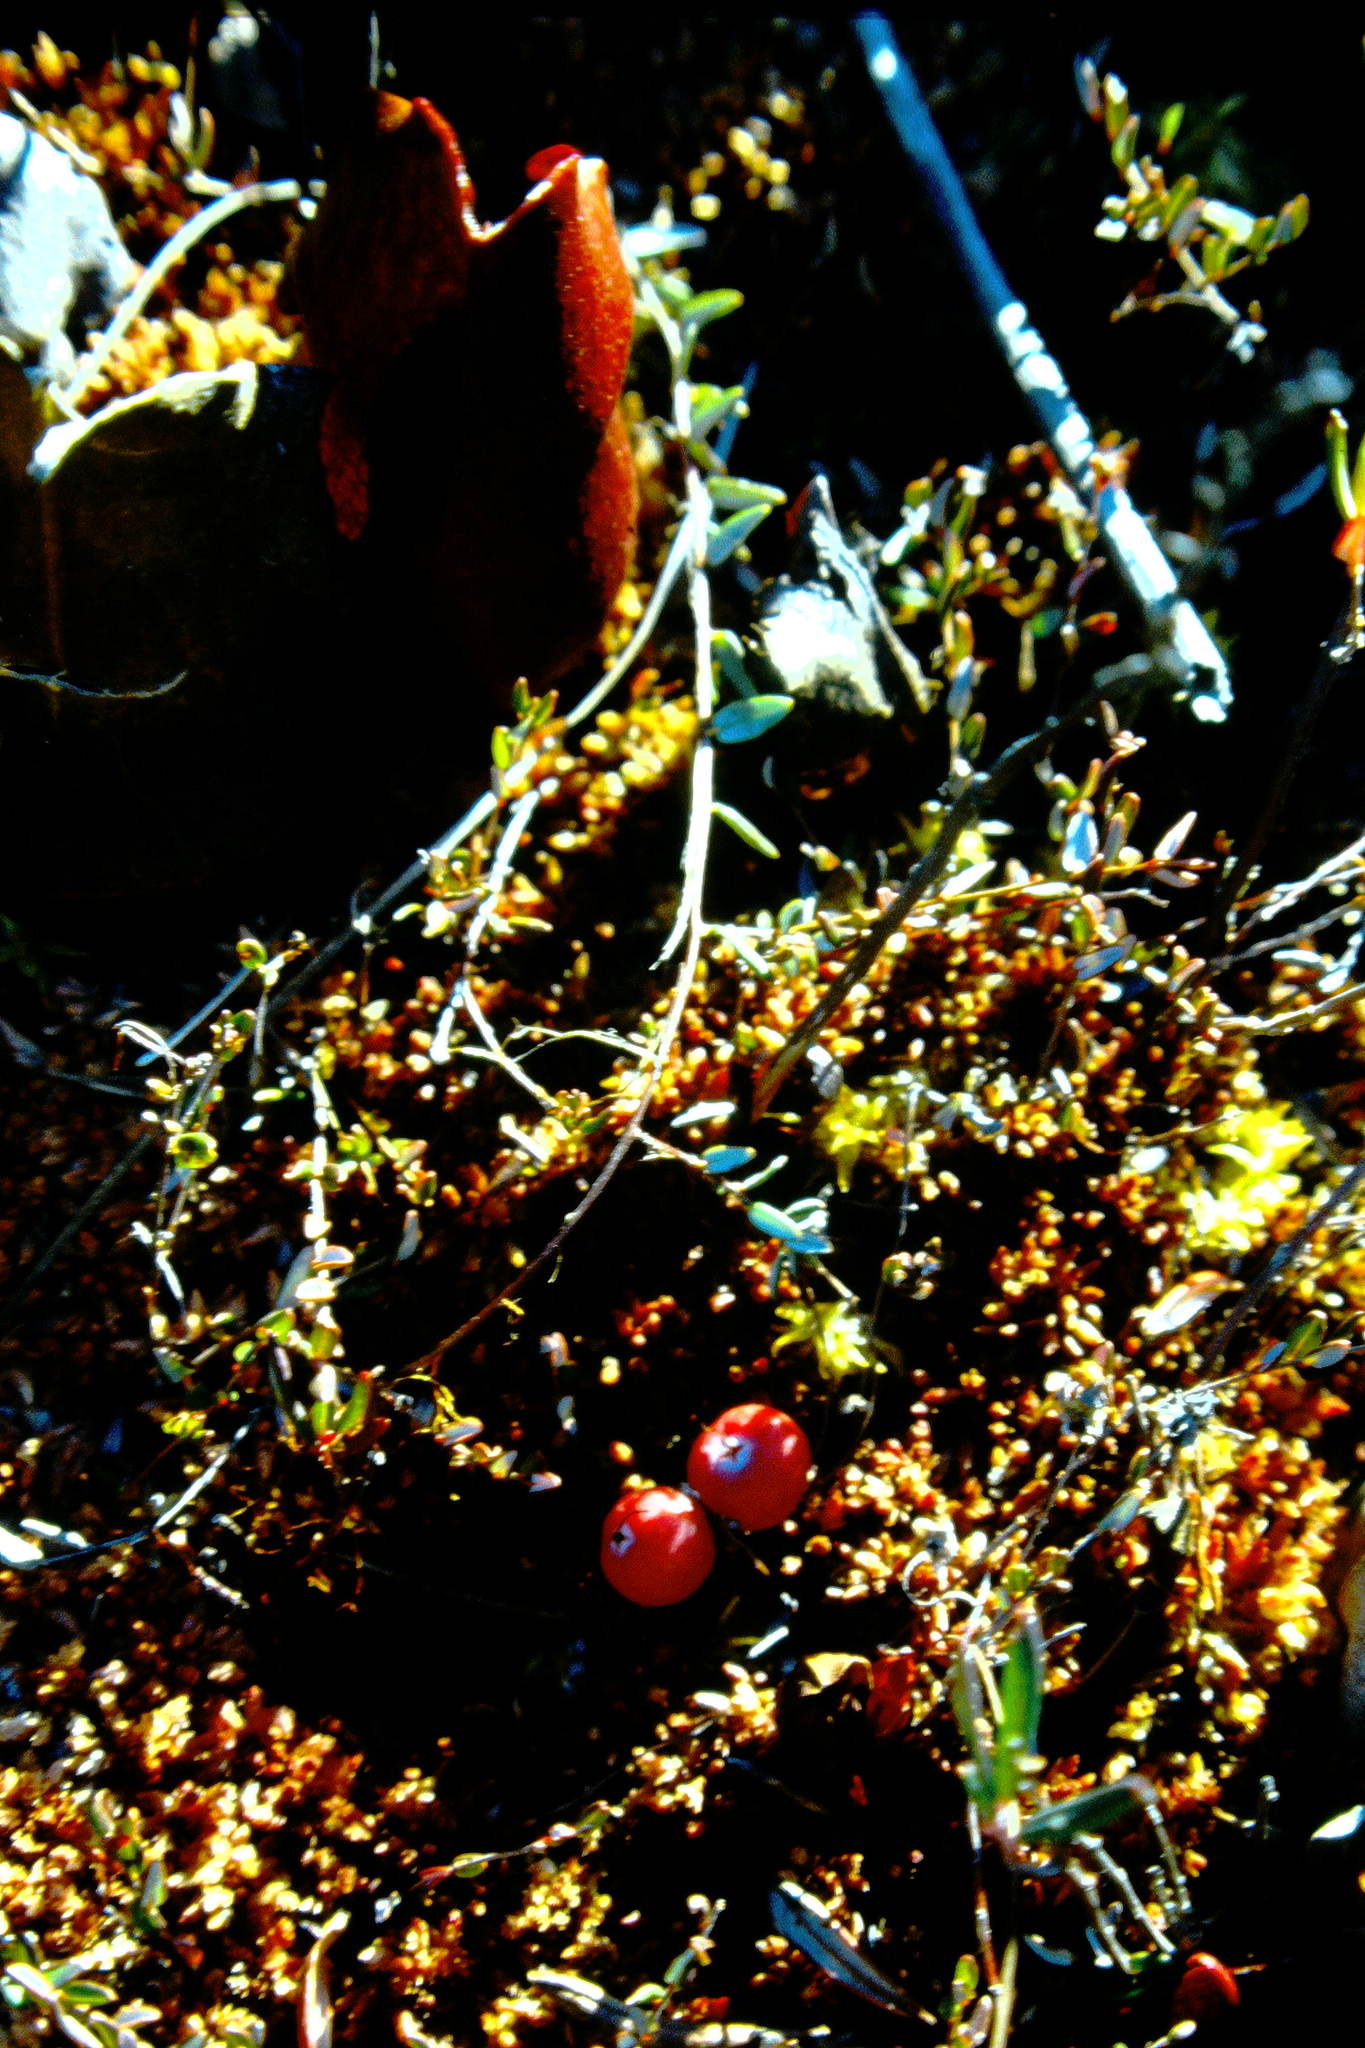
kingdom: Plantae
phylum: Tracheophyta
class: Magnoliopsida
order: Ericales
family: Ericaceae
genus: Vaccinium
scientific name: Vaccinium oxycoccos
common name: Cranberry
